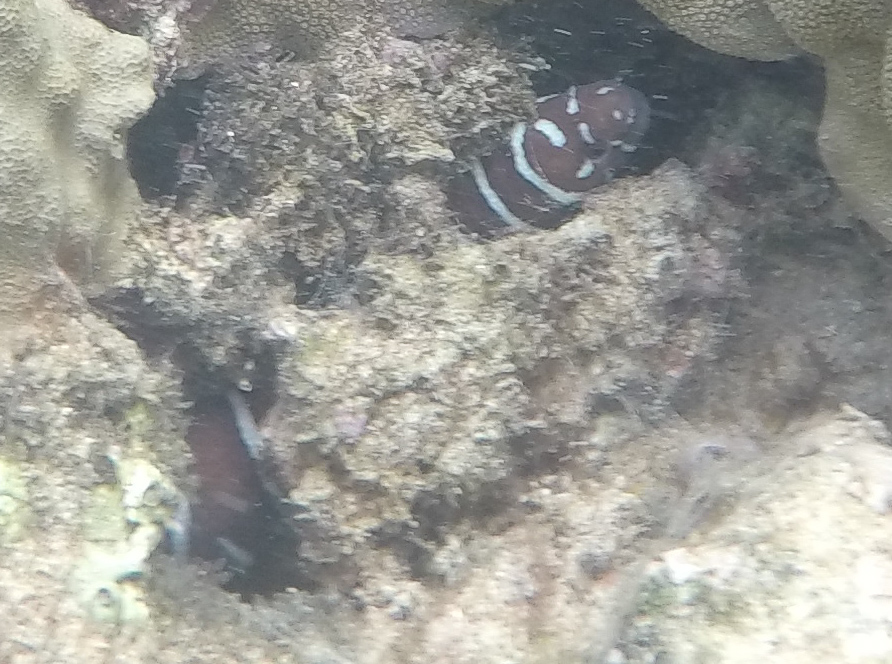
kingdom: Animalia
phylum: Chordata
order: Anguilliformes
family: Muraenidae
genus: Gymnomuraena
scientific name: Gymnomuraena zebra
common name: Zebra moray
